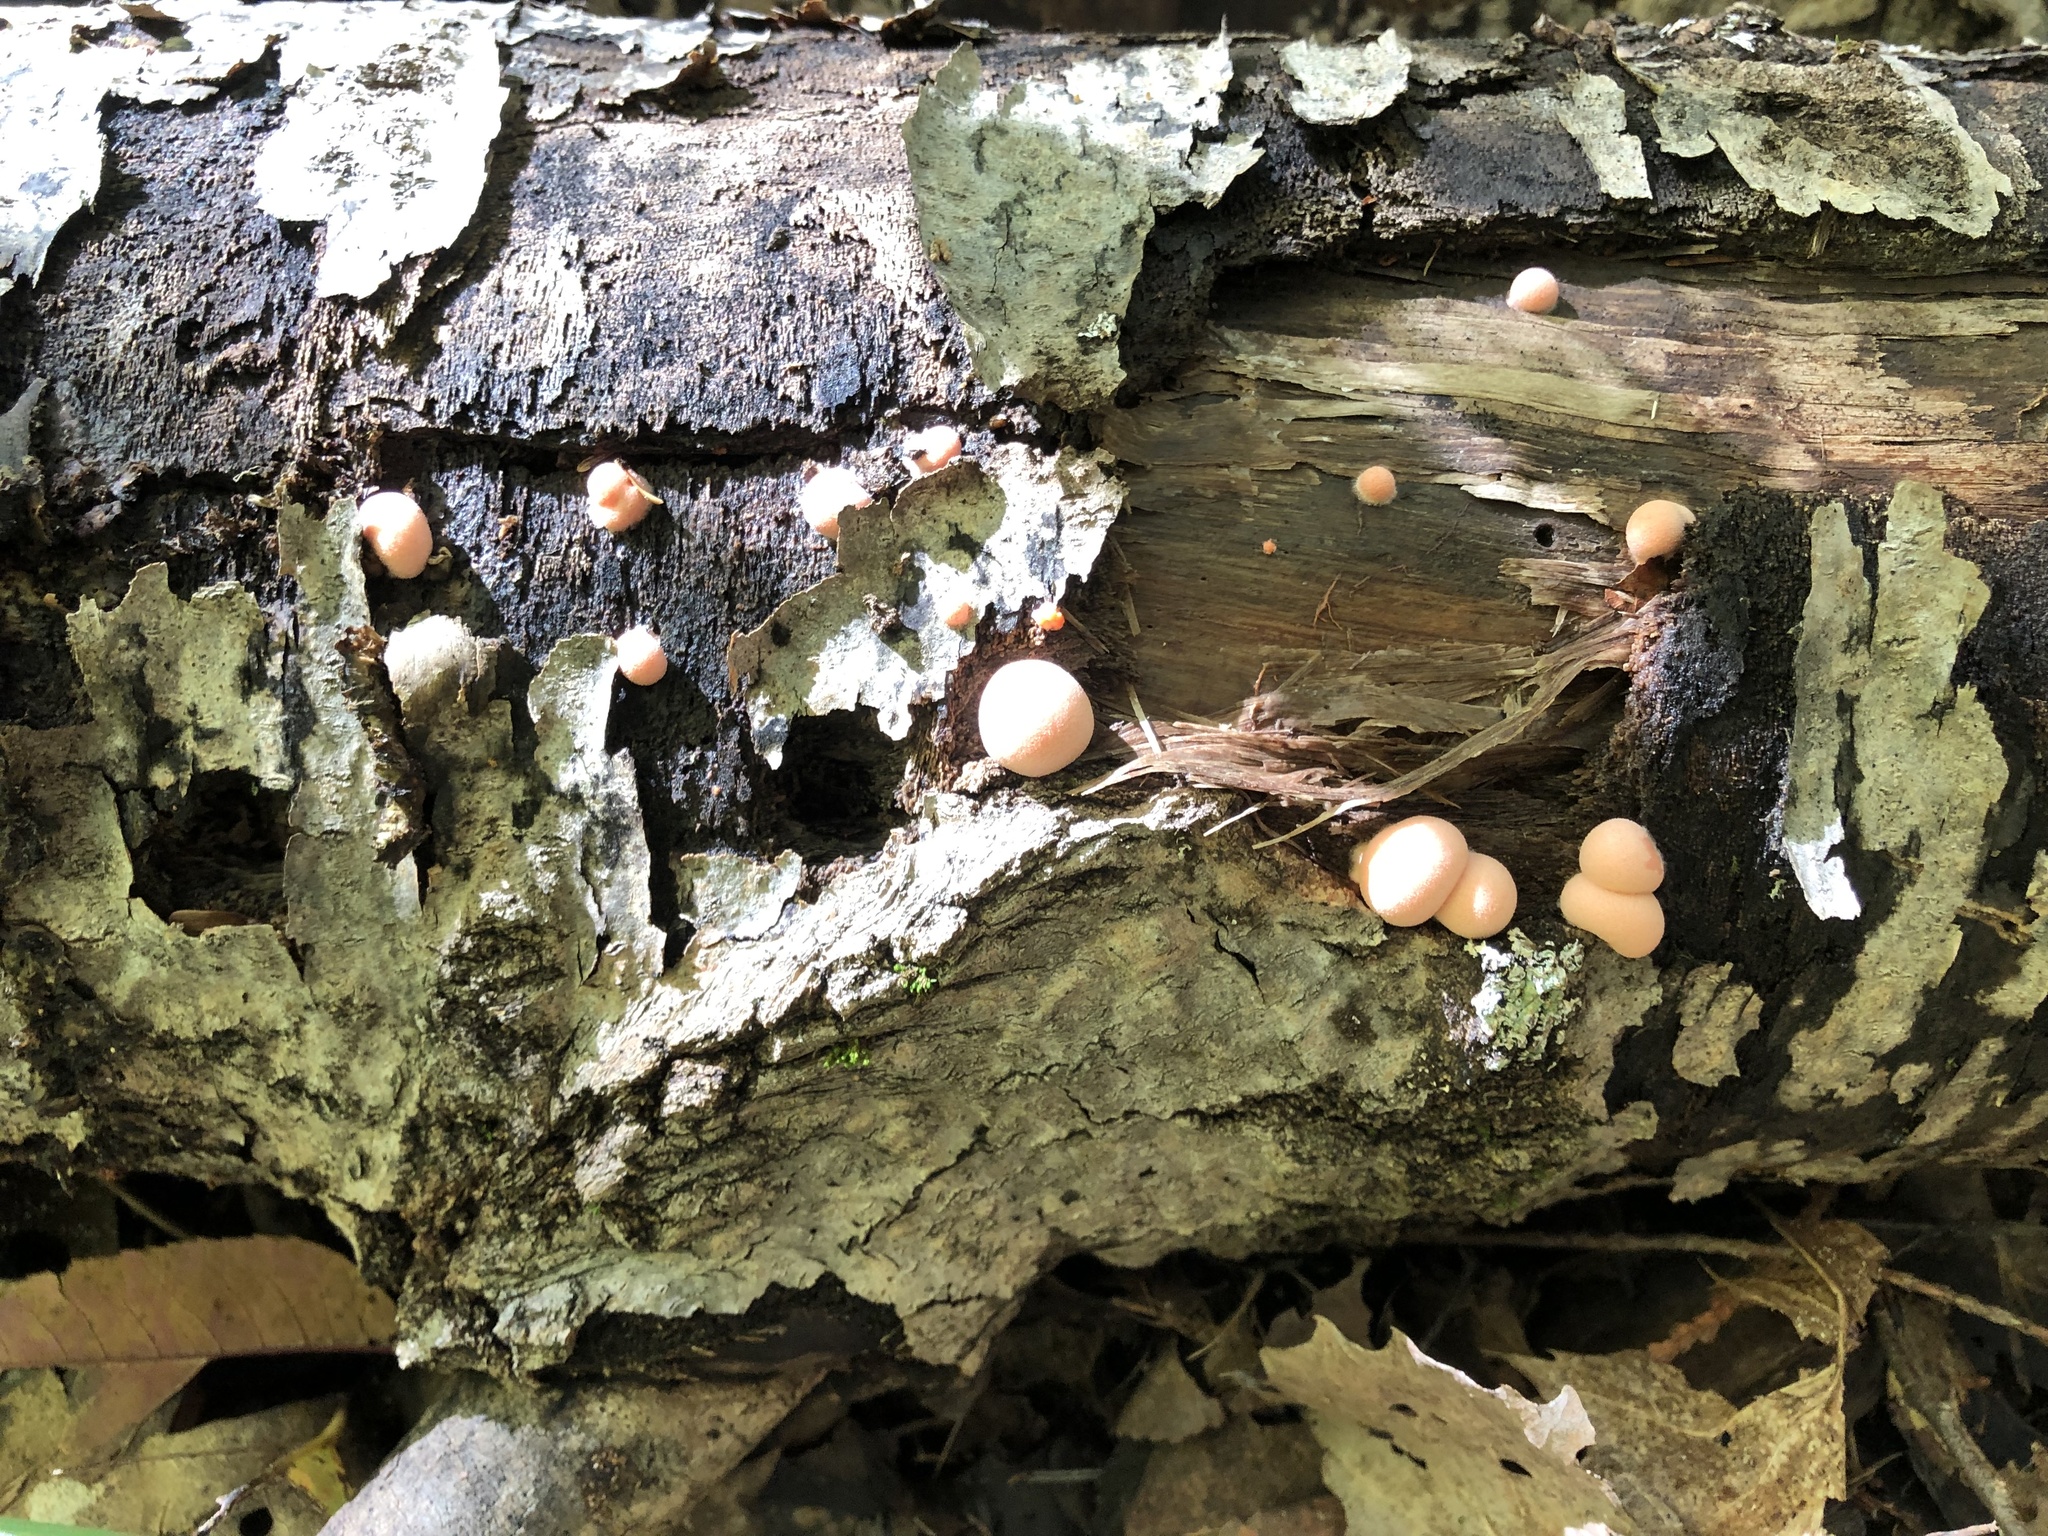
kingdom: Protozoa
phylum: Mycetozoa
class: Myxomycetes
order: Cribrariales
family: Tubiferaceae
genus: Lycogala
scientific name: Lycogala epidendrum
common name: Wolf's milk
